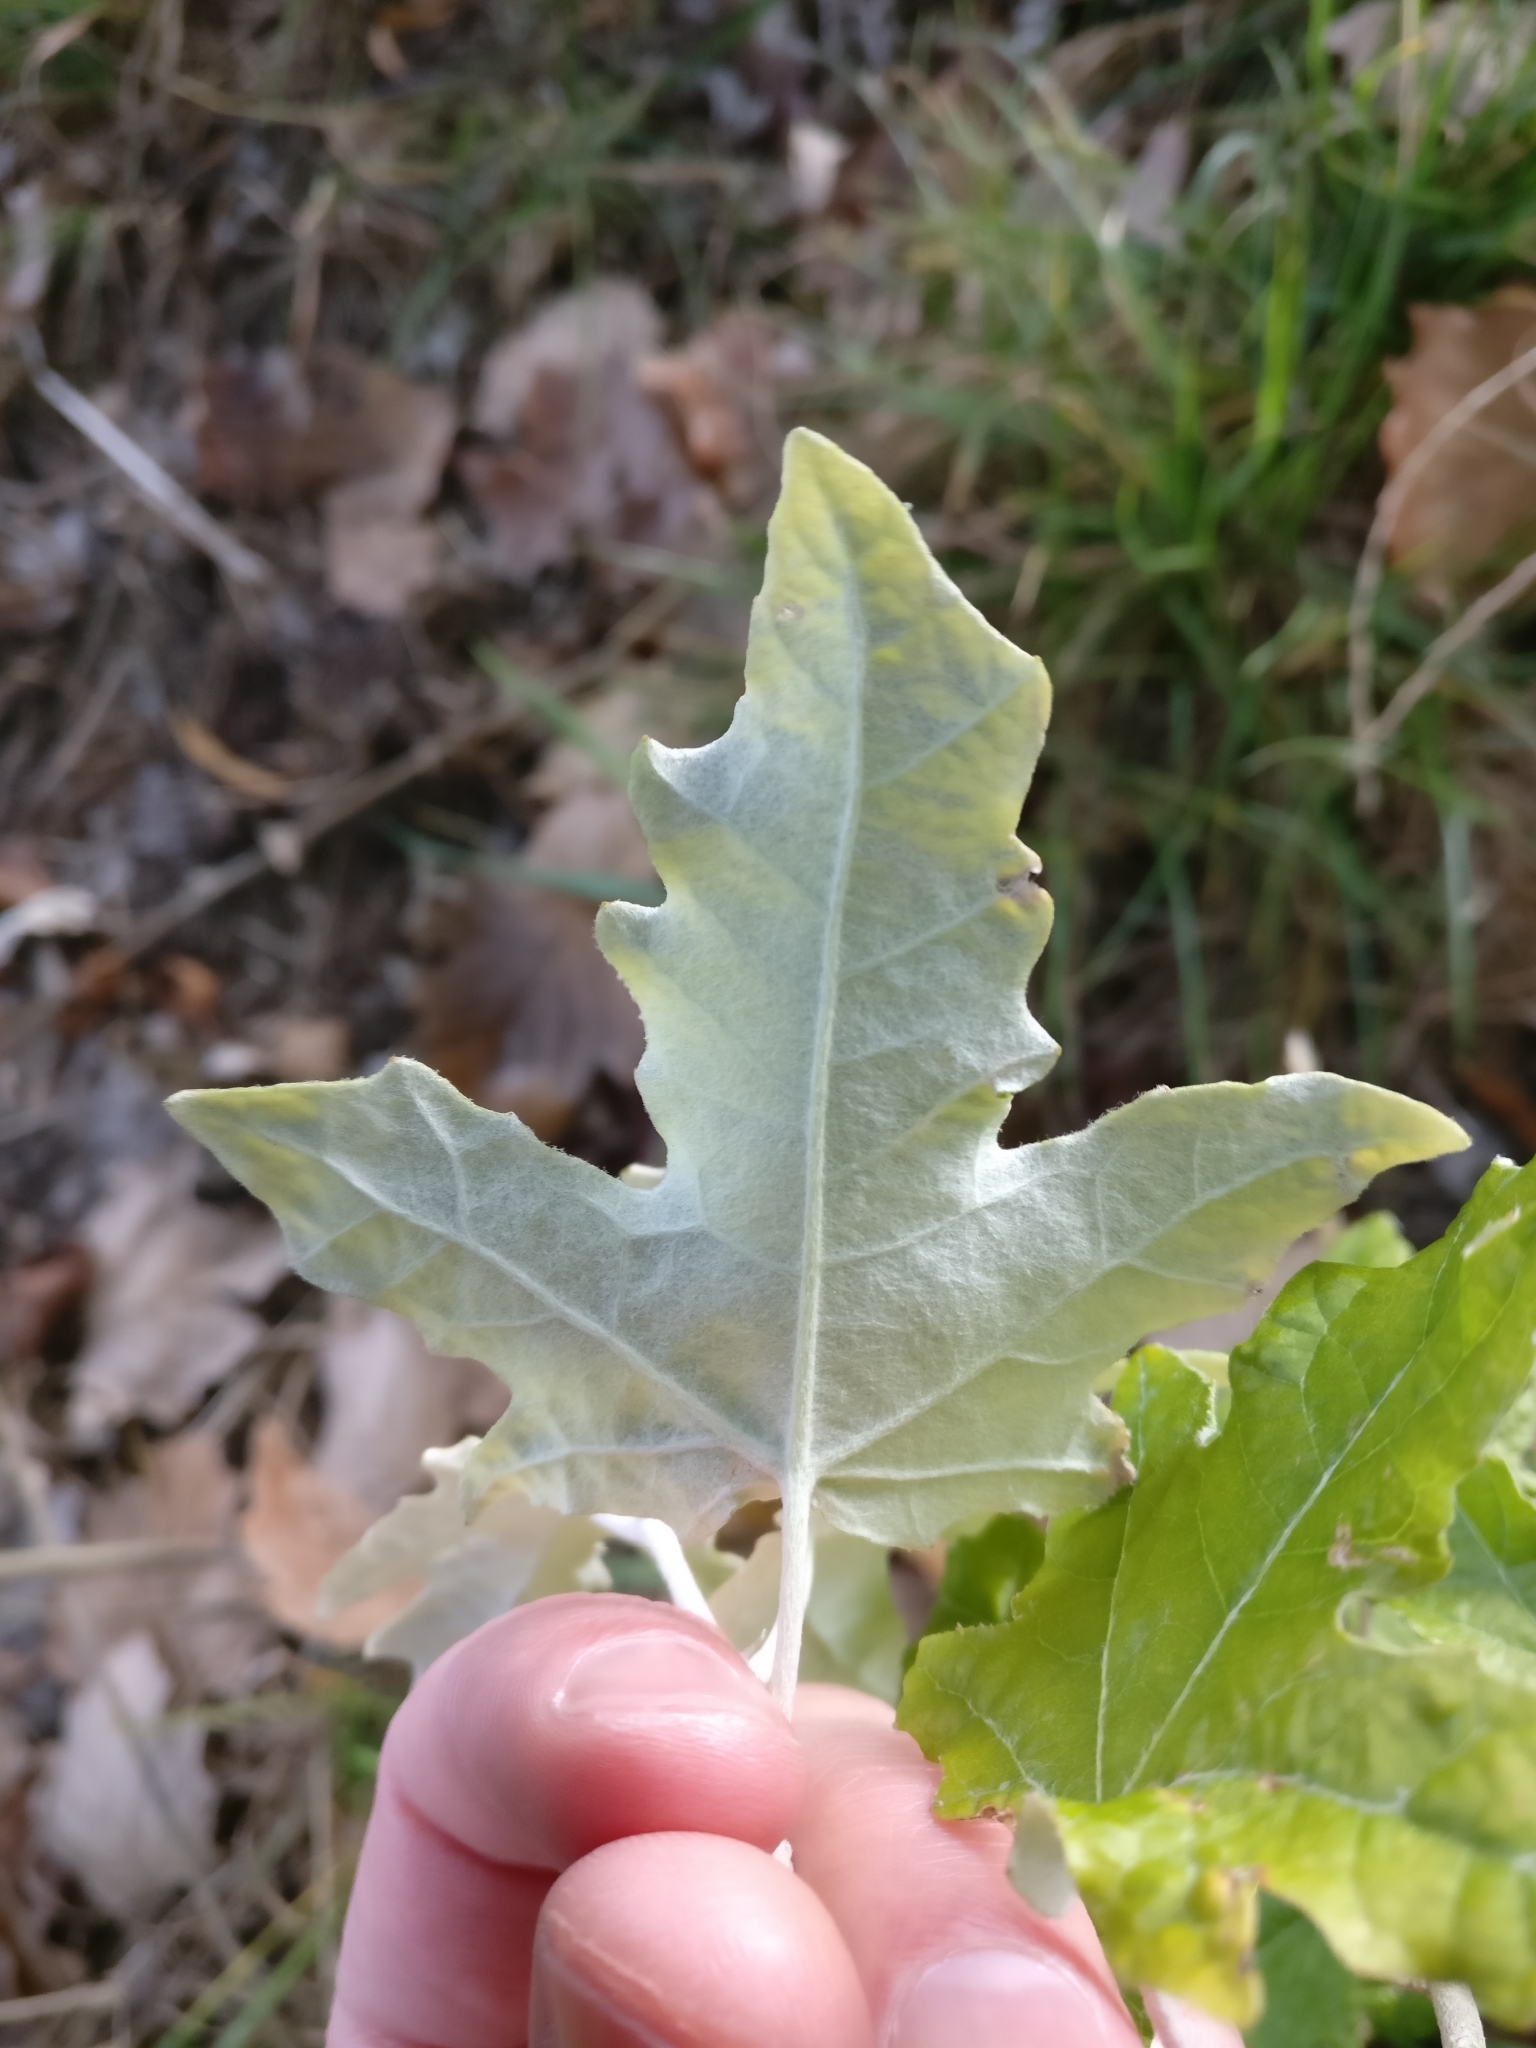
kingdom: Plantae
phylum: Tracheophyta
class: Magnoliopsida
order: Malpighiales
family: Salicaceae
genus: Populus
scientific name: Populus alba
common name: White poplar
